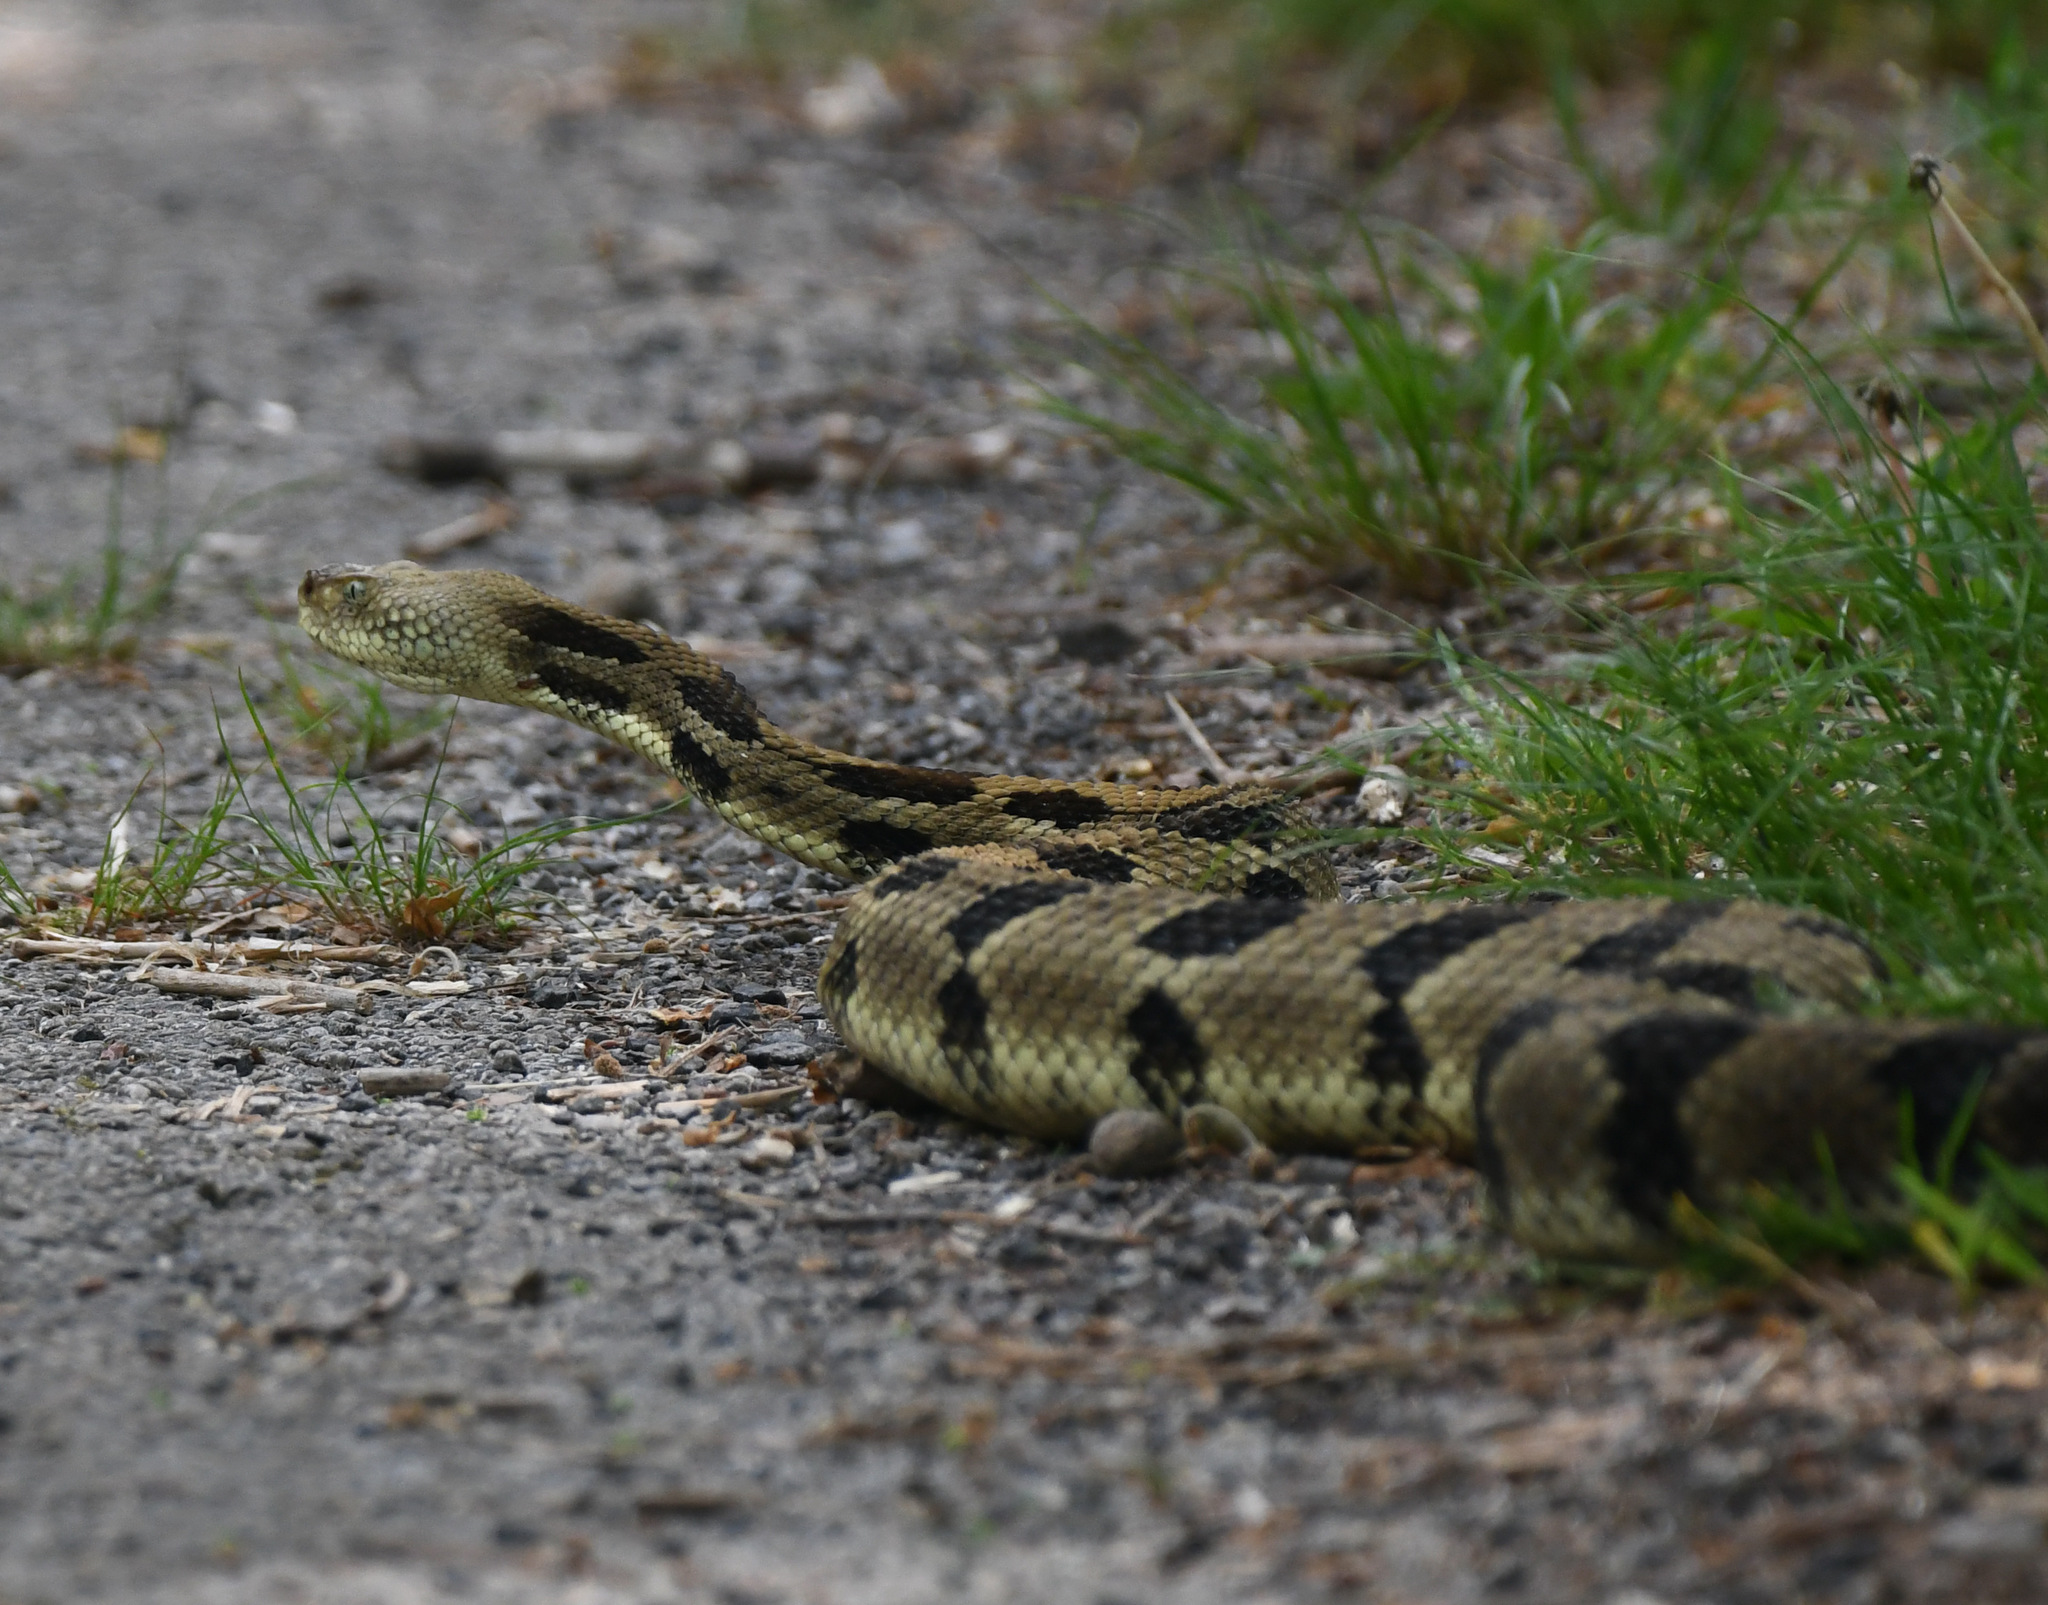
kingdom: Animalia
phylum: Chordata
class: Squamata
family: Viperidae
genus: Crotalus
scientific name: Crotalus horridus
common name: Timber rattlesnake
